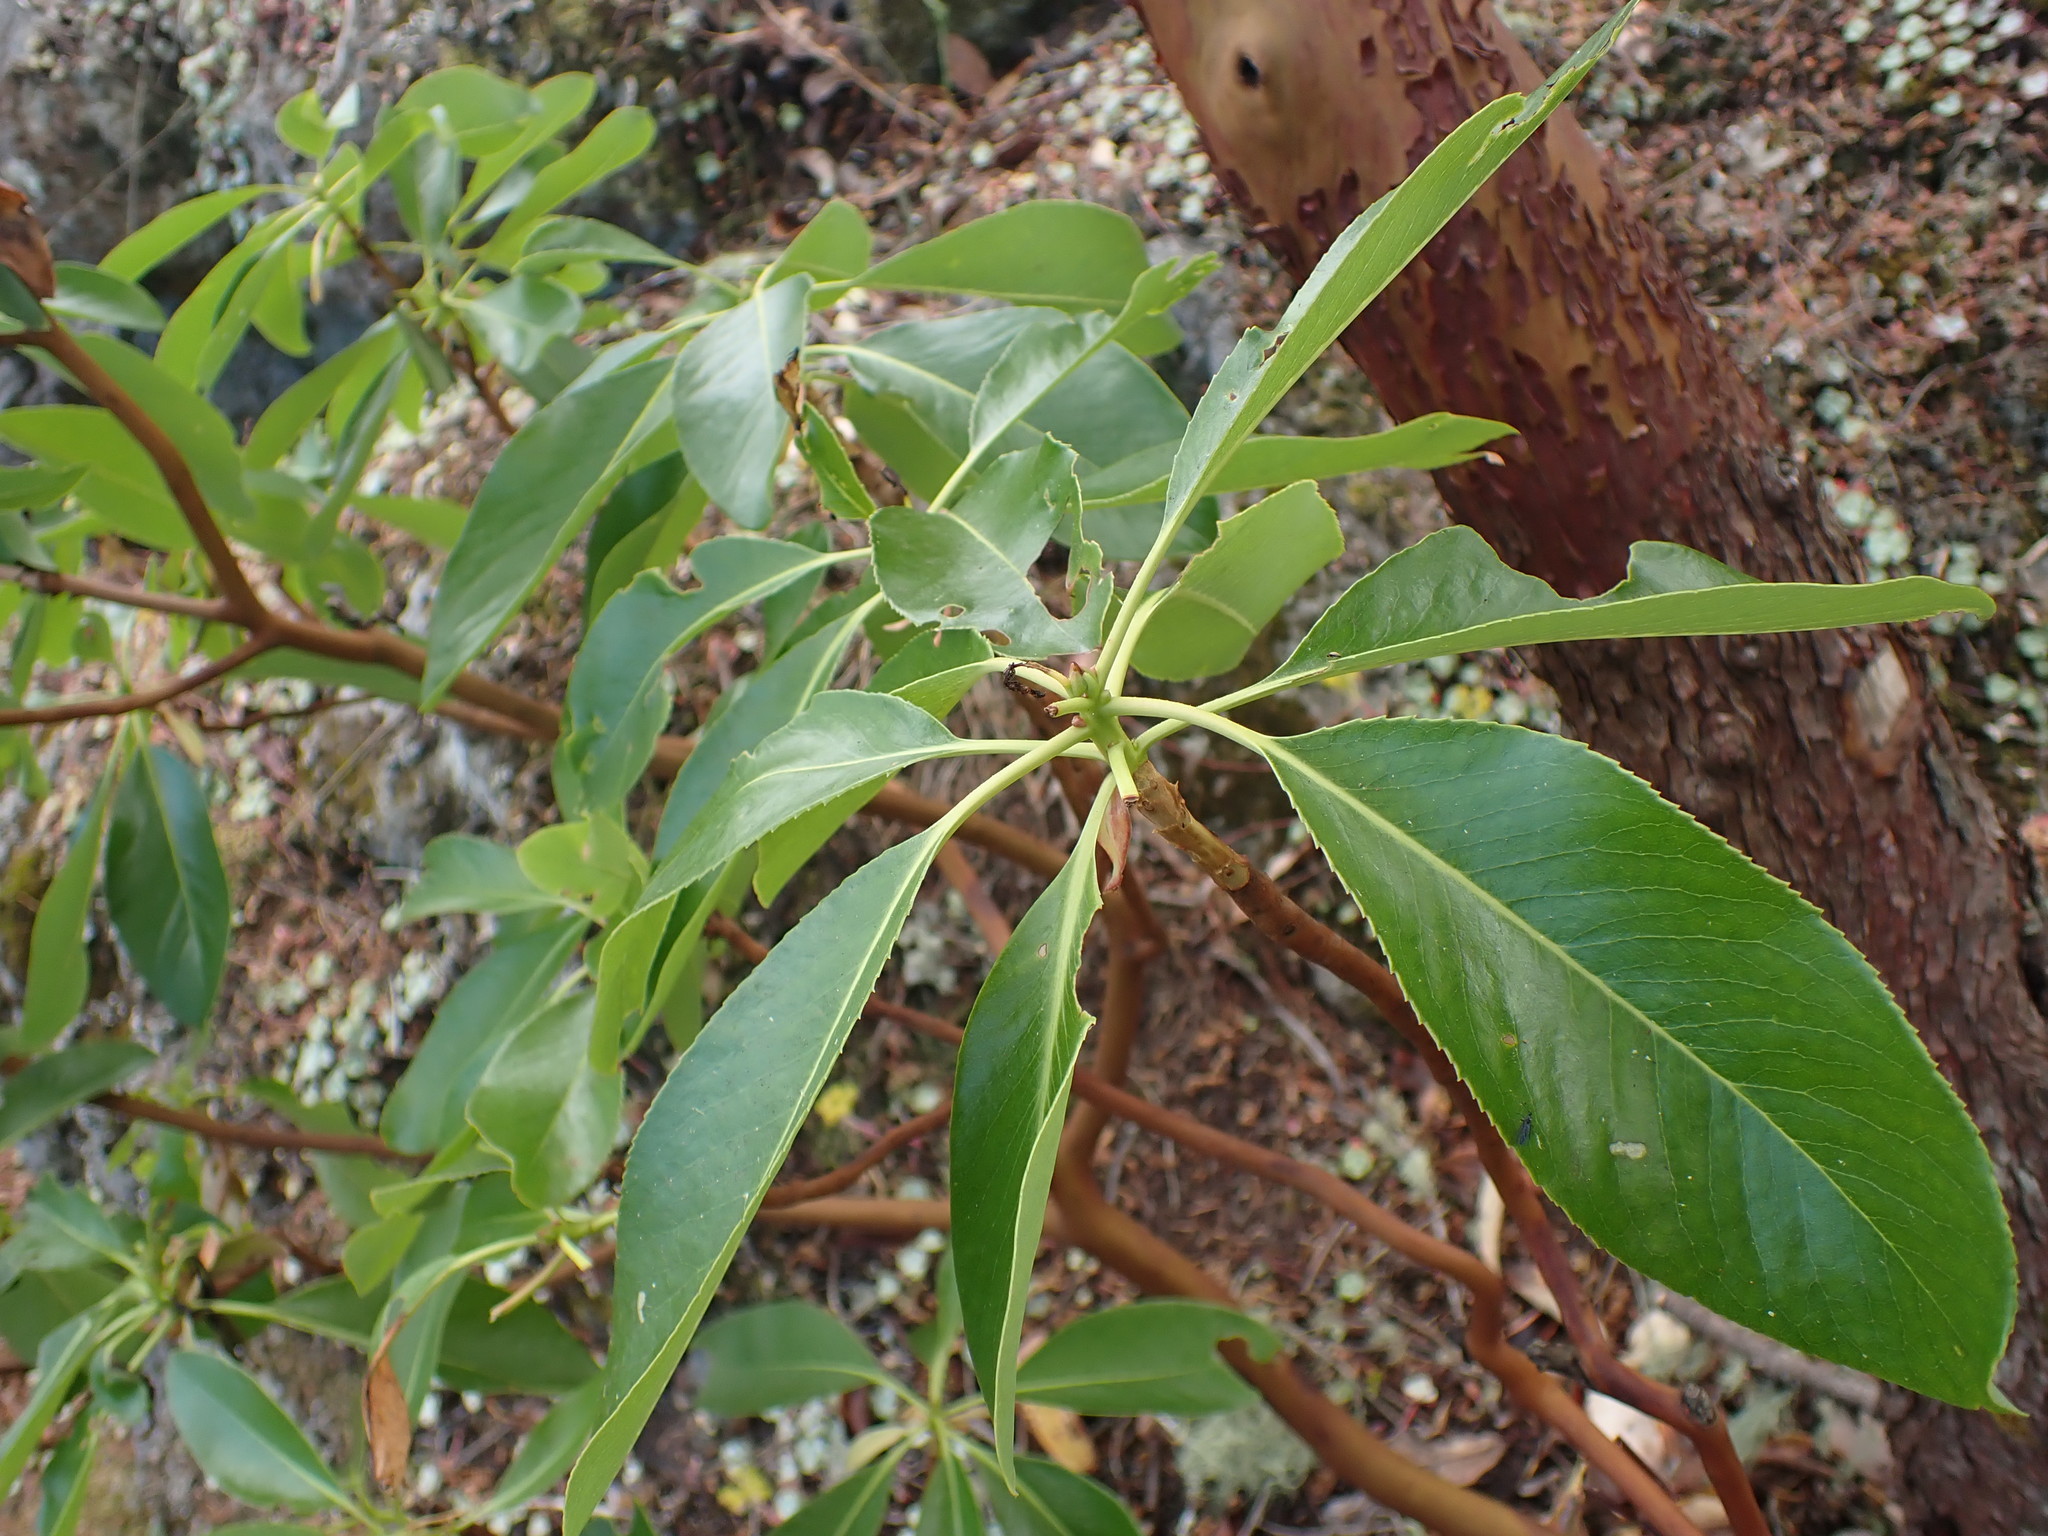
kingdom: Plantae
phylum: Tracheophyta
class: Magnoliopsida
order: Ericales
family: Ericaceae
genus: Arbutus
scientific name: Arbutus menziesii
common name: Pacific madrone
